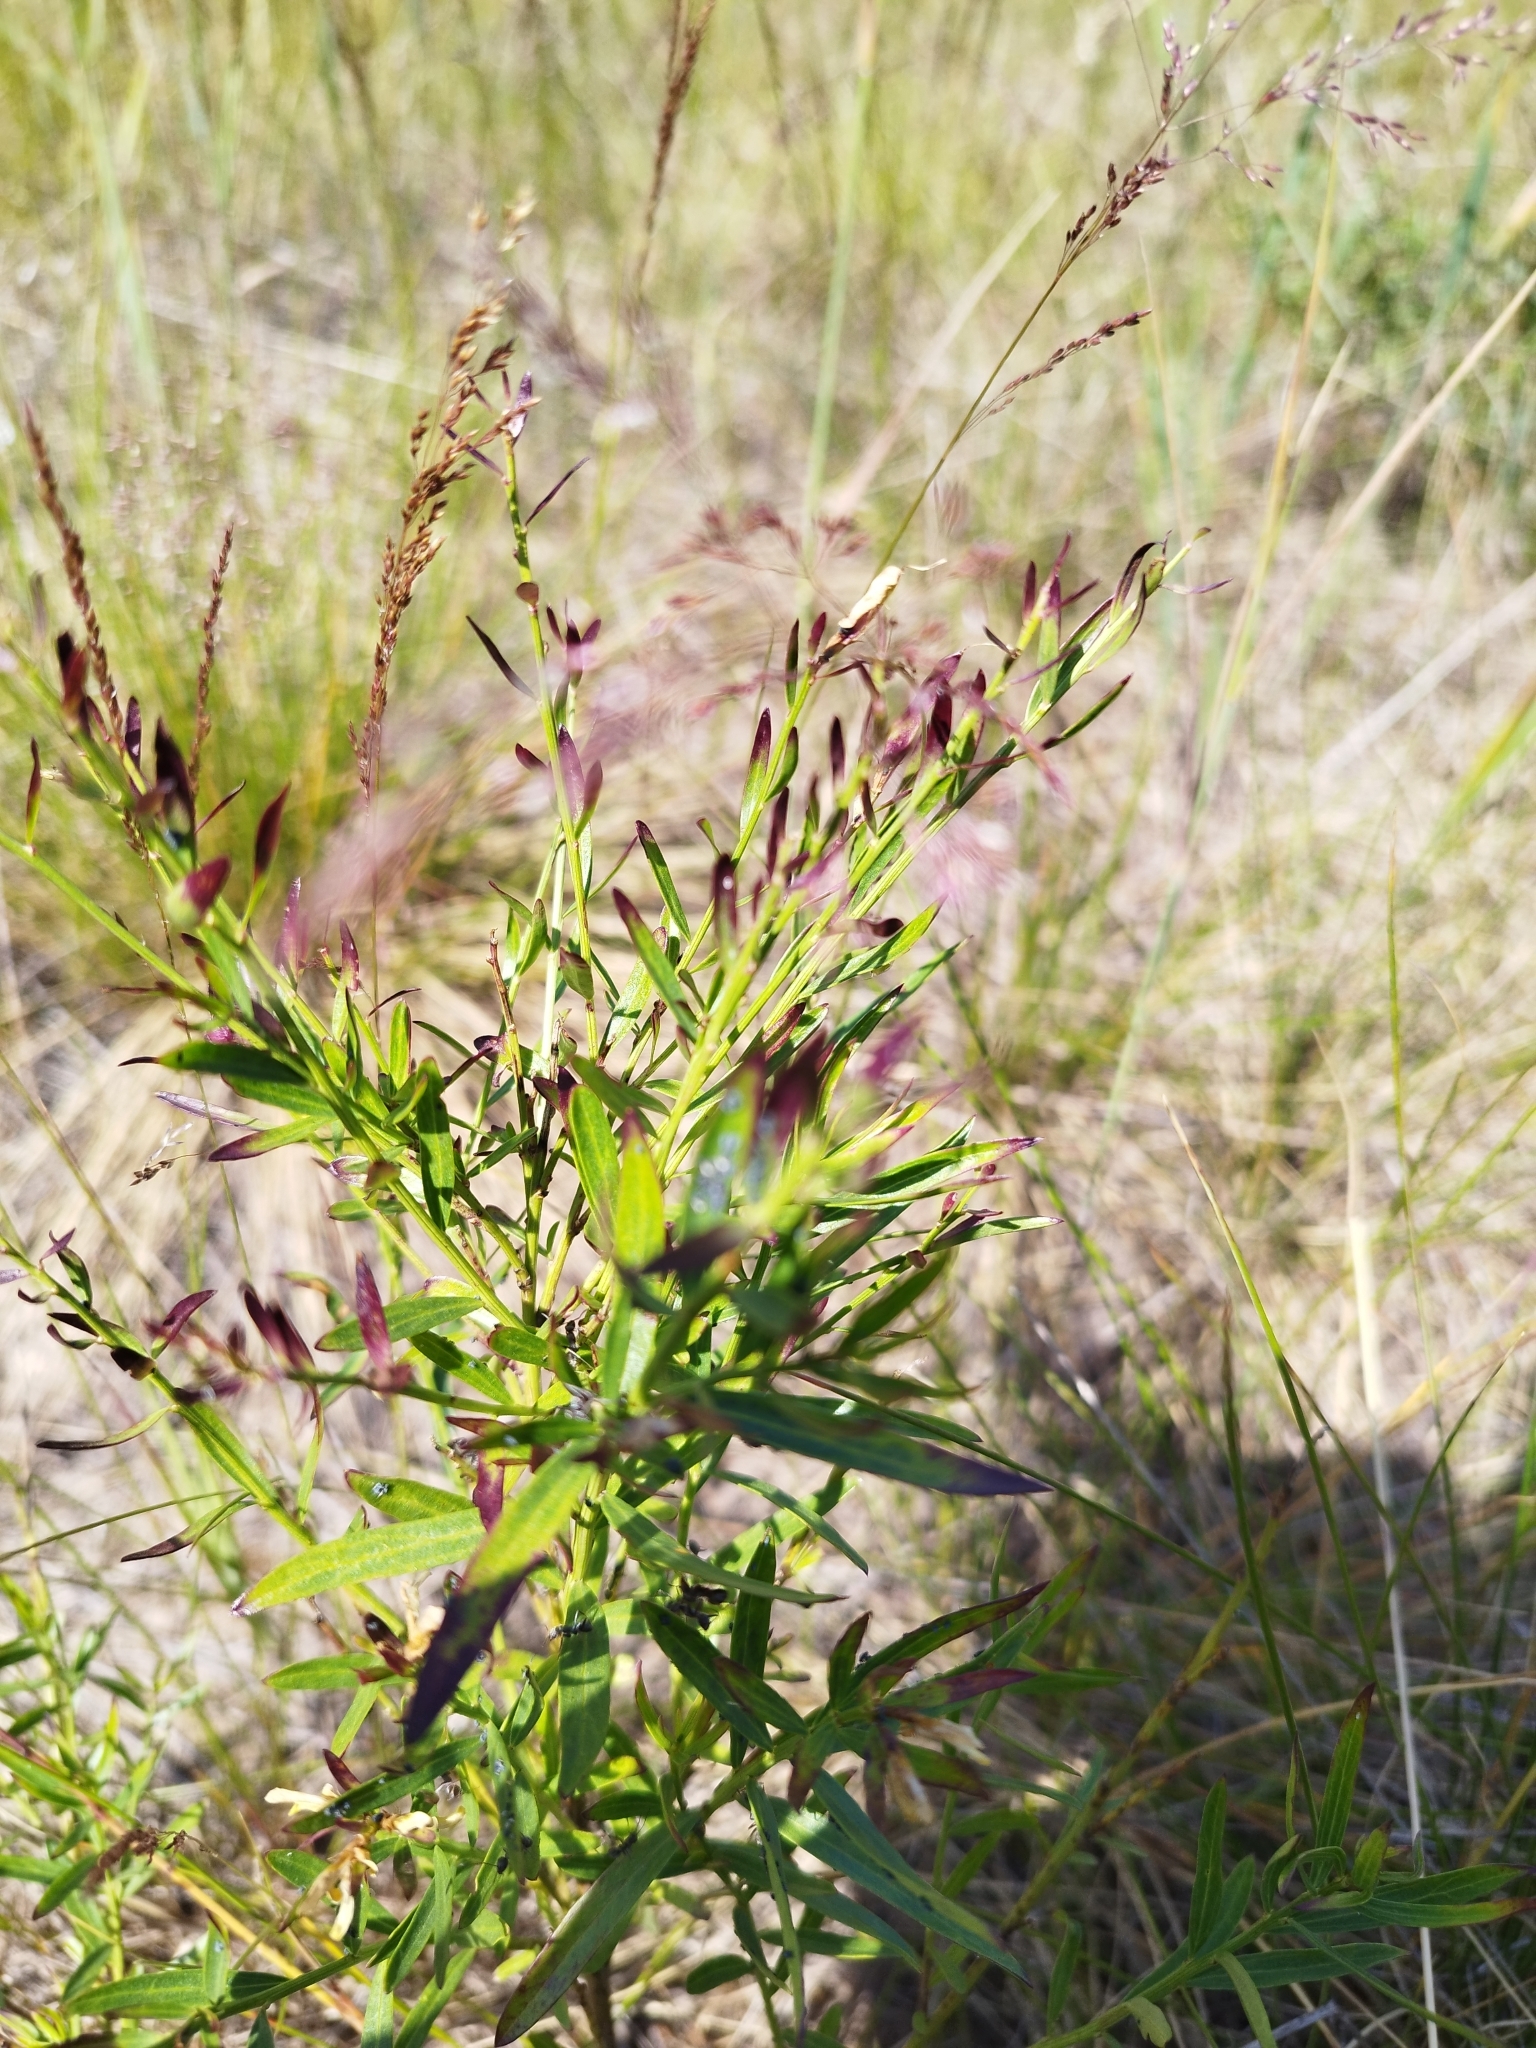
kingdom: Plantae
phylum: Tracheophyta
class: Magnoliopsida
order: Myrtales
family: Lythraceae
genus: Lythrum
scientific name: Lythrum virgatum
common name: European wand loosestrife
